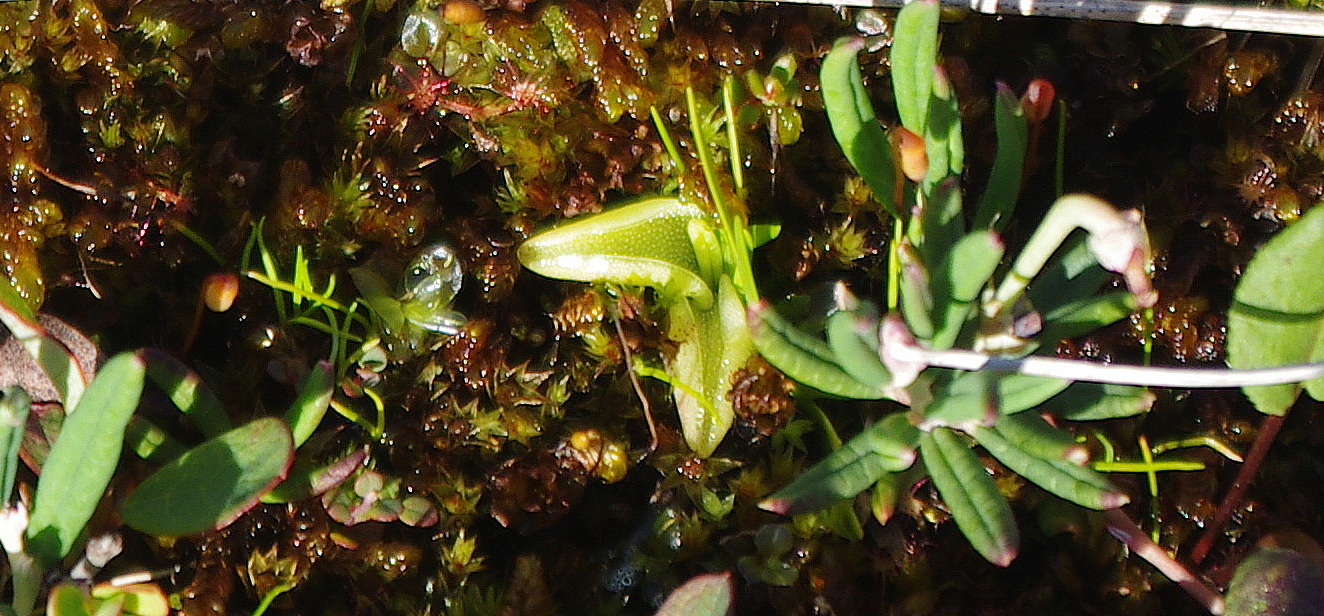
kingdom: Plantae
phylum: Tracheophyta
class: Magnoliopsida
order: Lamiales
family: Lentibulariaceae
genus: Pinguicula
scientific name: Pinguicula vulgaris
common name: Common butterwort
